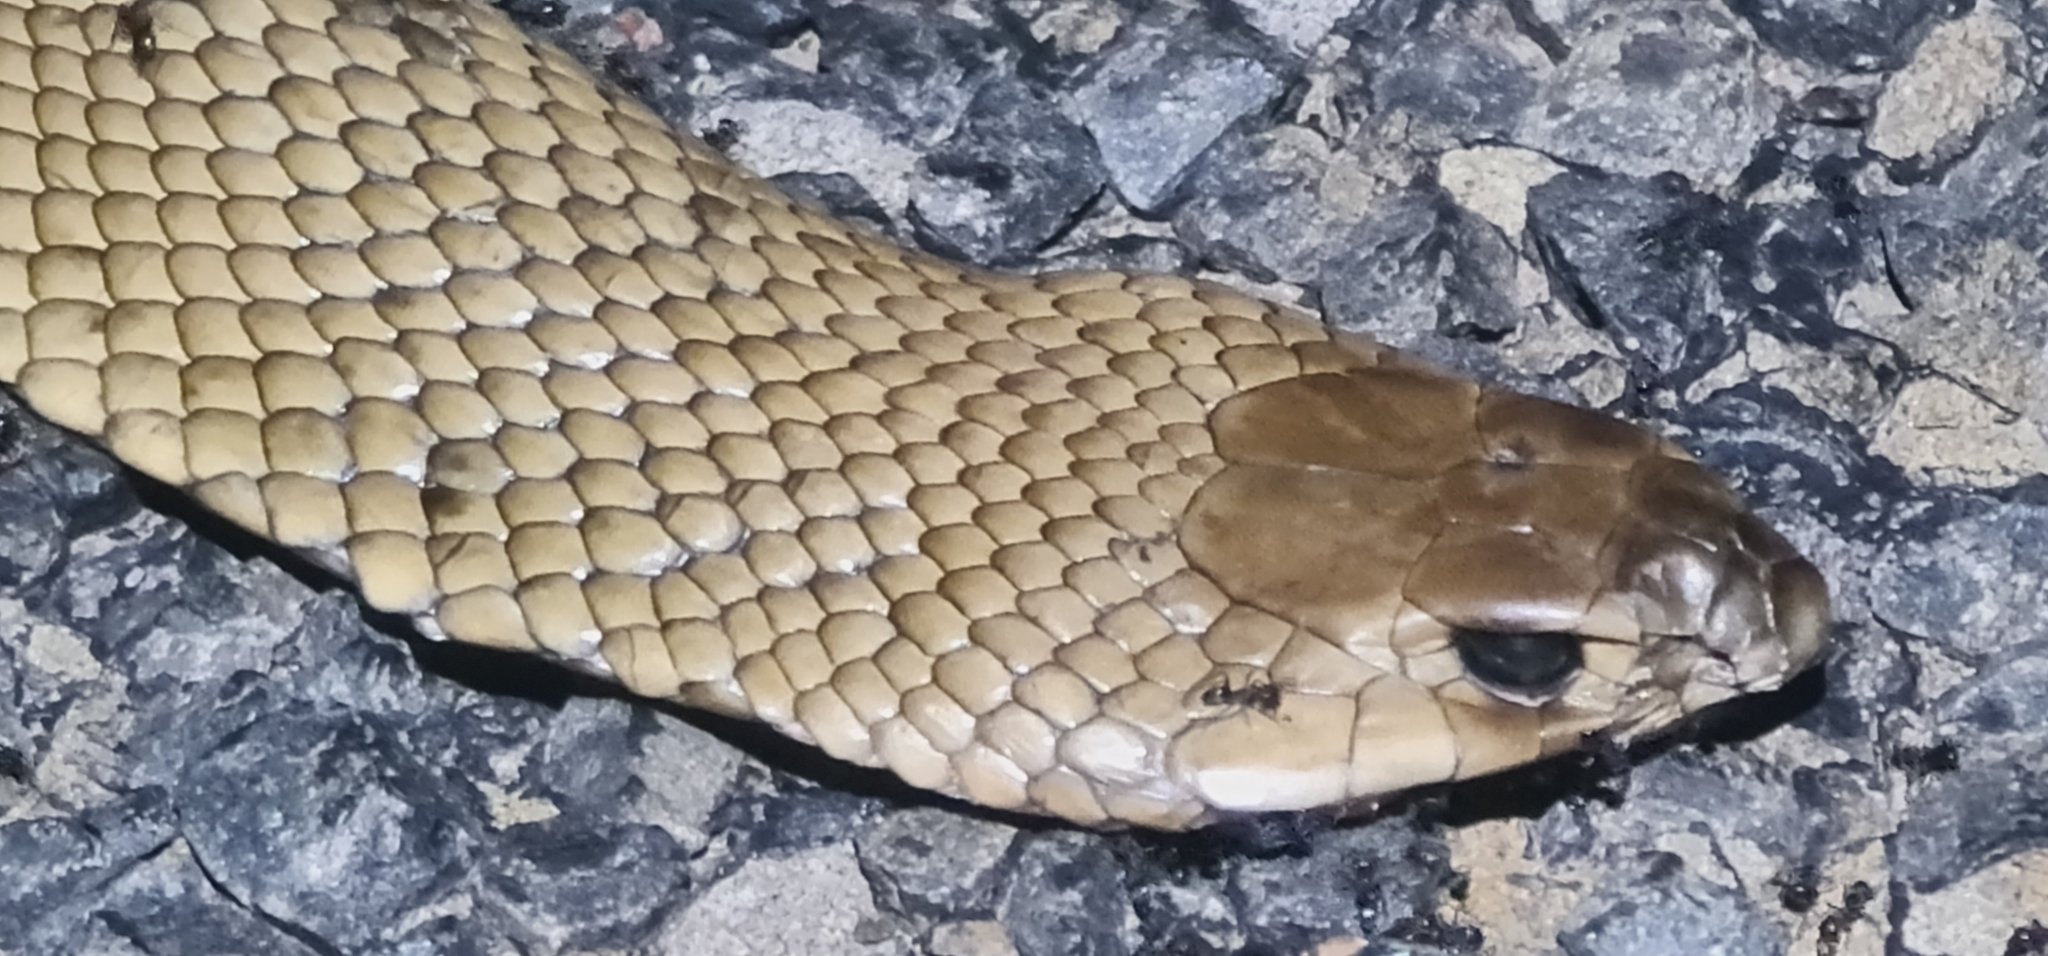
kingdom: Animalia
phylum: Chordata
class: Squamata
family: Elapidae
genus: Pseudonaja
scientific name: Pseudonaja textilis
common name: Eastern brown snake
